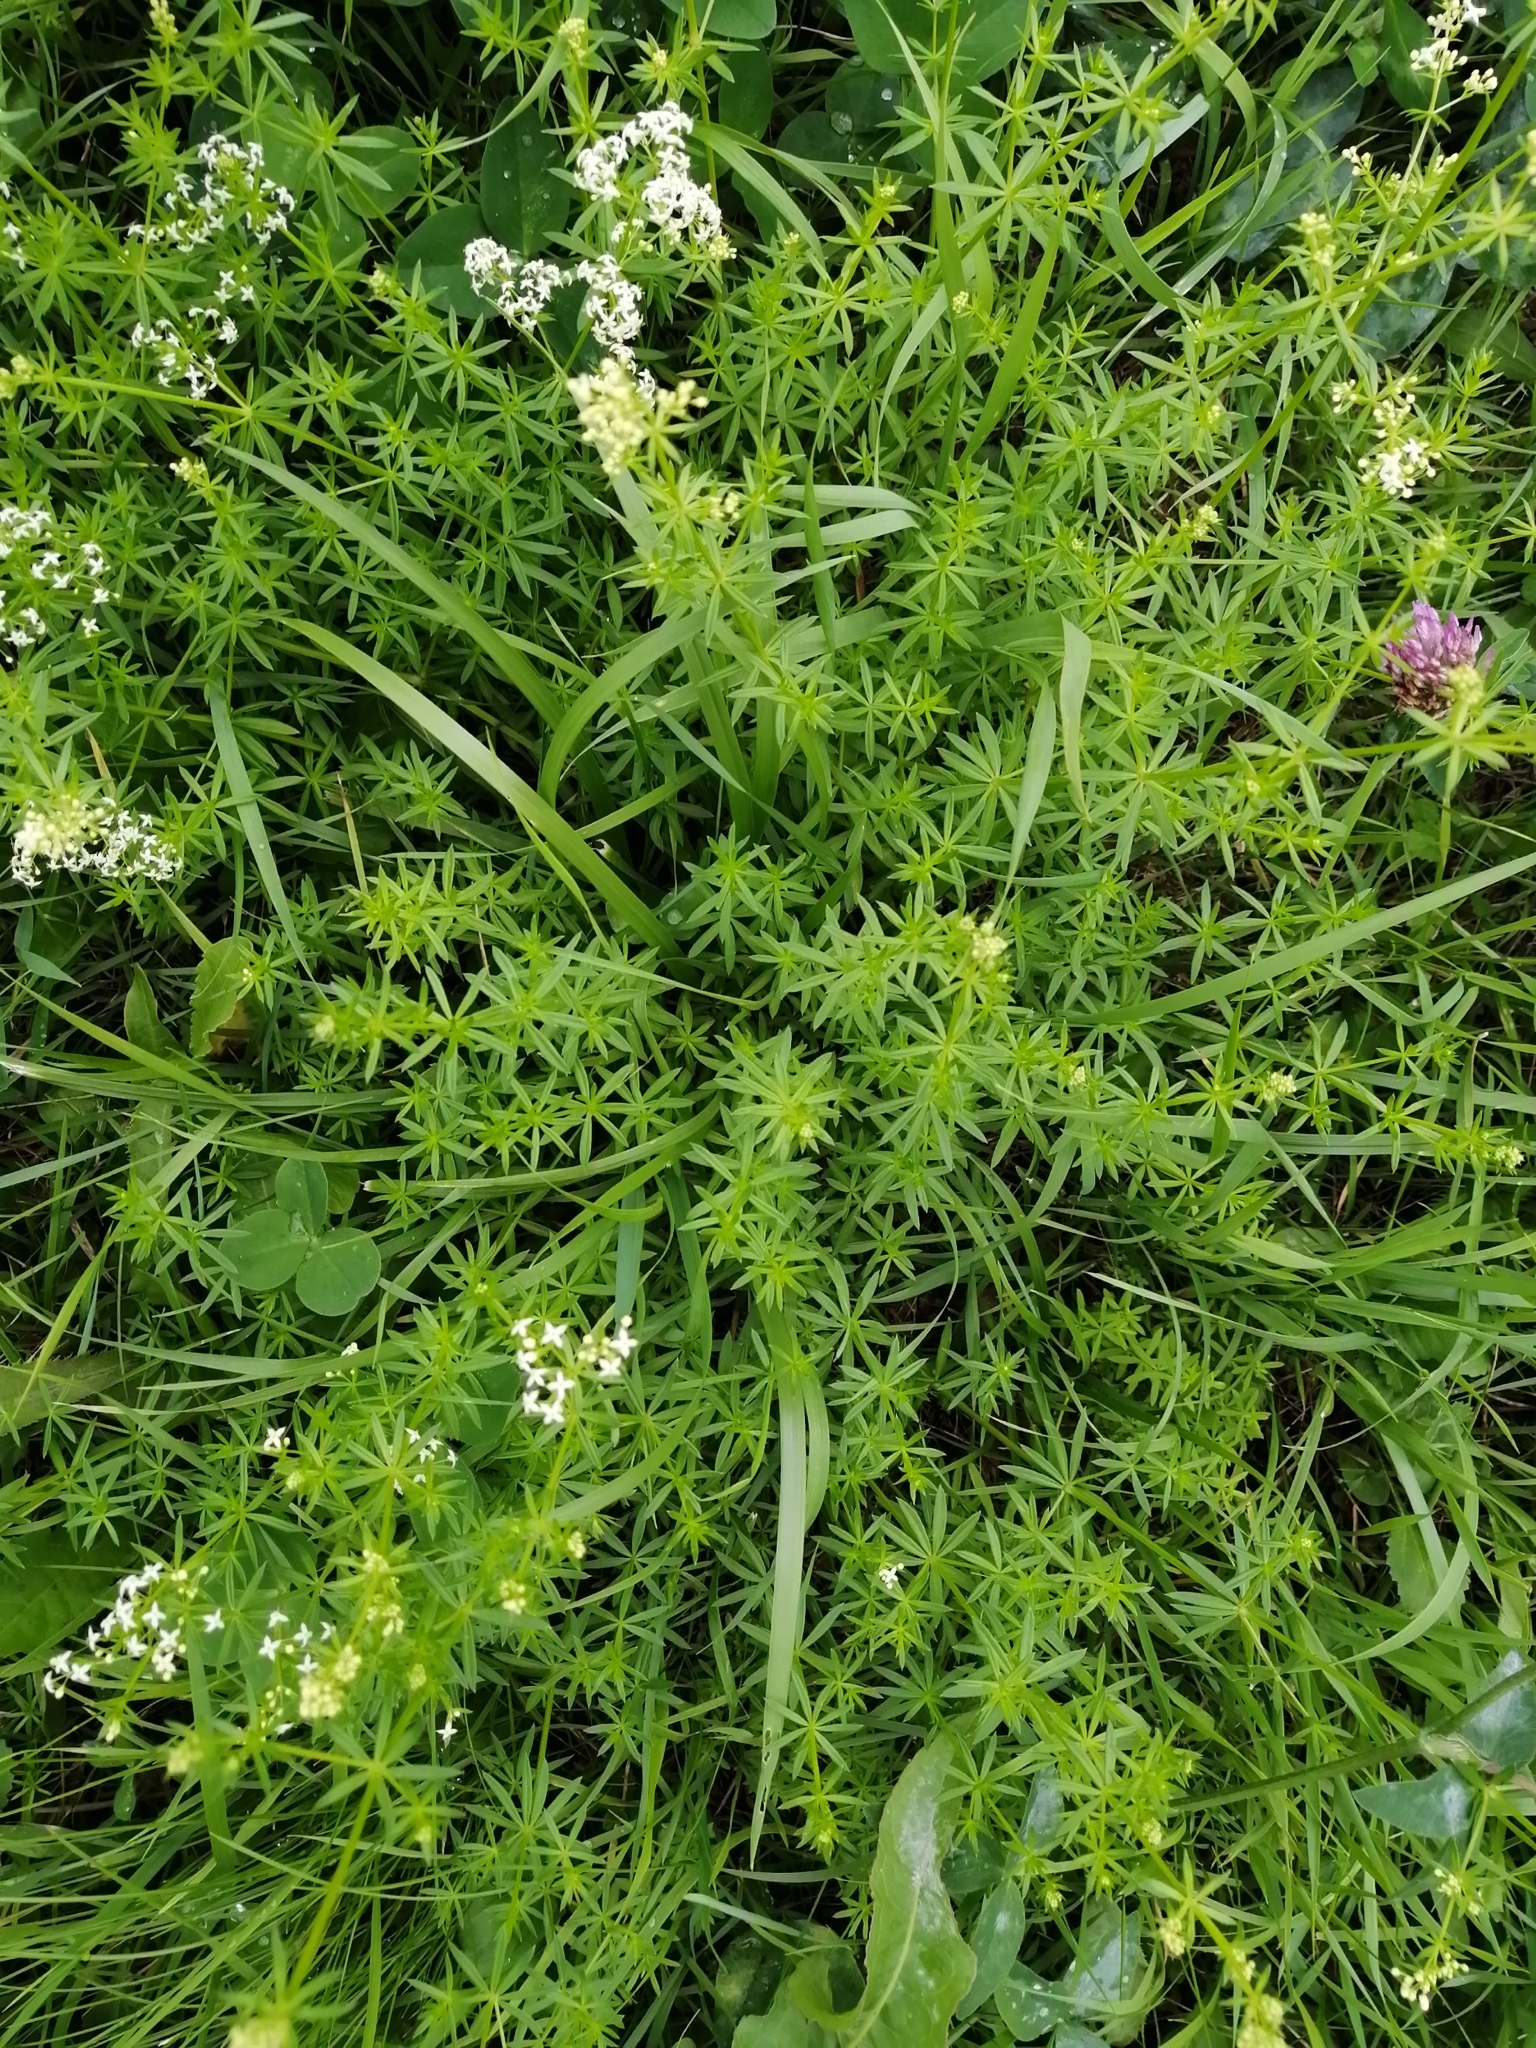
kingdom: Plantae
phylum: Tracheophyta
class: Magnoliopsida
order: Gentianales
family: Rubiaceae
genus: Galium
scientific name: Galium mollugo
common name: Hedge bedstraw
